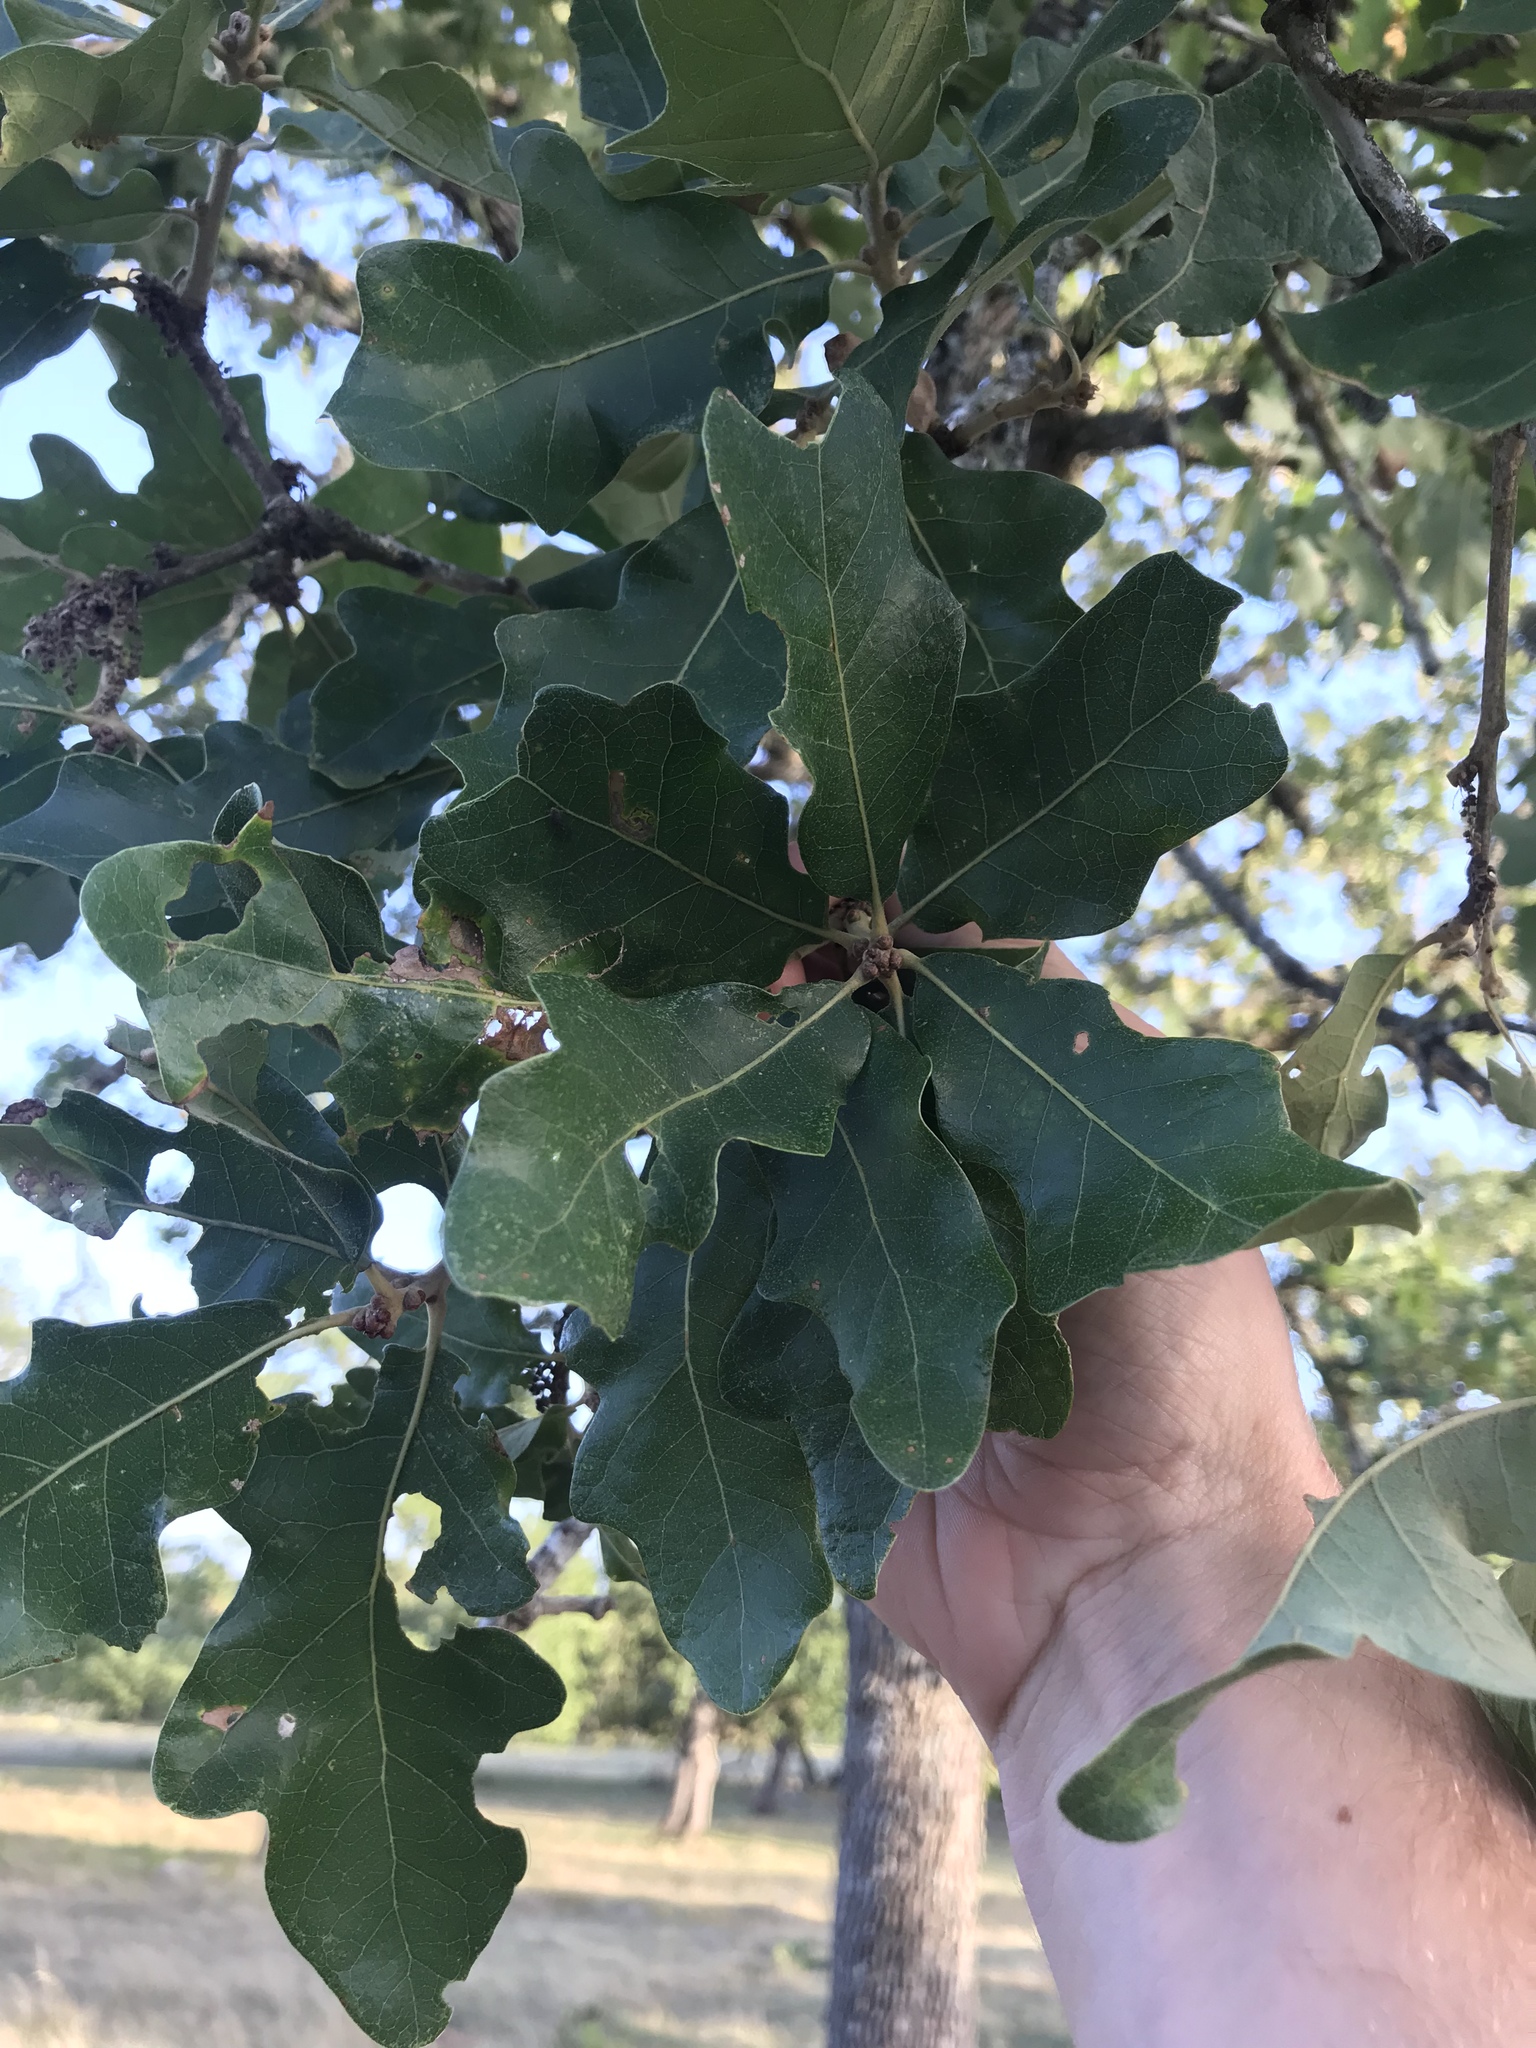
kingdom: Plantae
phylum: Tracheophyta
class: Magnoliopsida
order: Fagales
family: Fagaceae
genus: Quercus
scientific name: Quercus stellata
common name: Post oak
